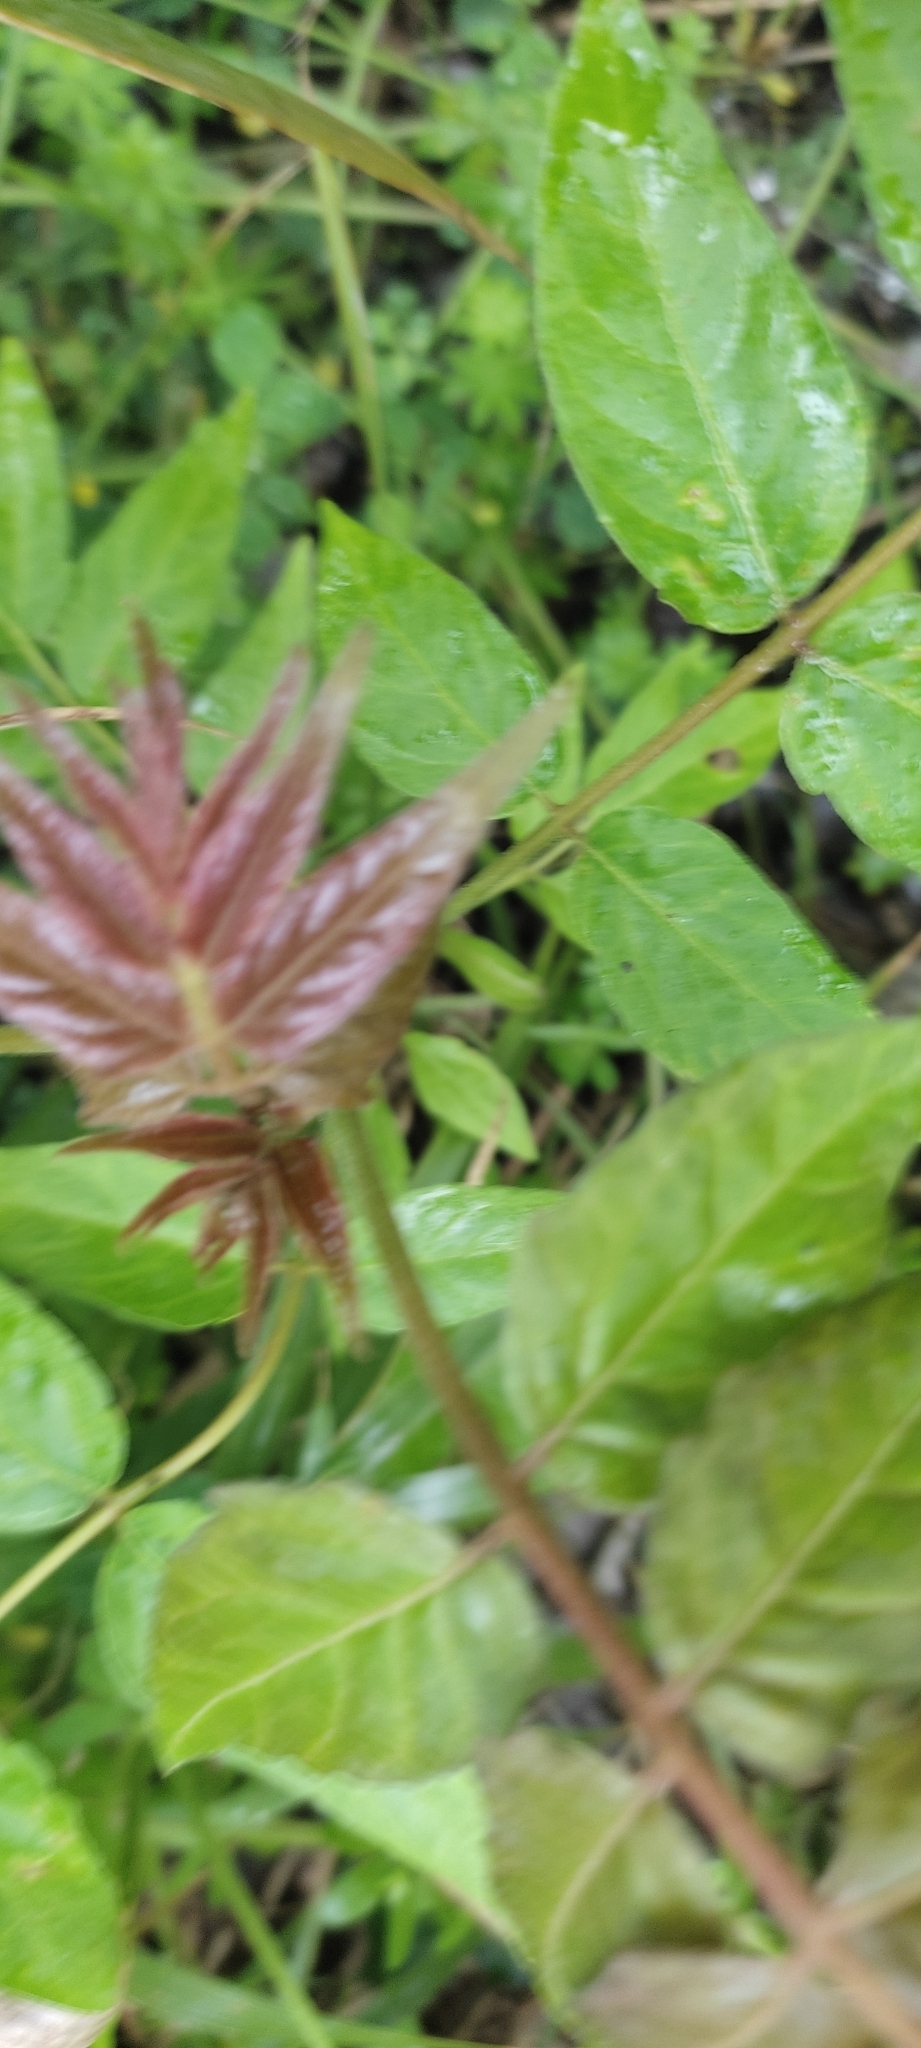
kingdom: Plantae
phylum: Tracheophyta
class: Magnoliopsida
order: Sapindales
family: Simaroubaceae
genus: Ailanthus
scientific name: Ailanthus altissima
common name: Tree-of-heaven
